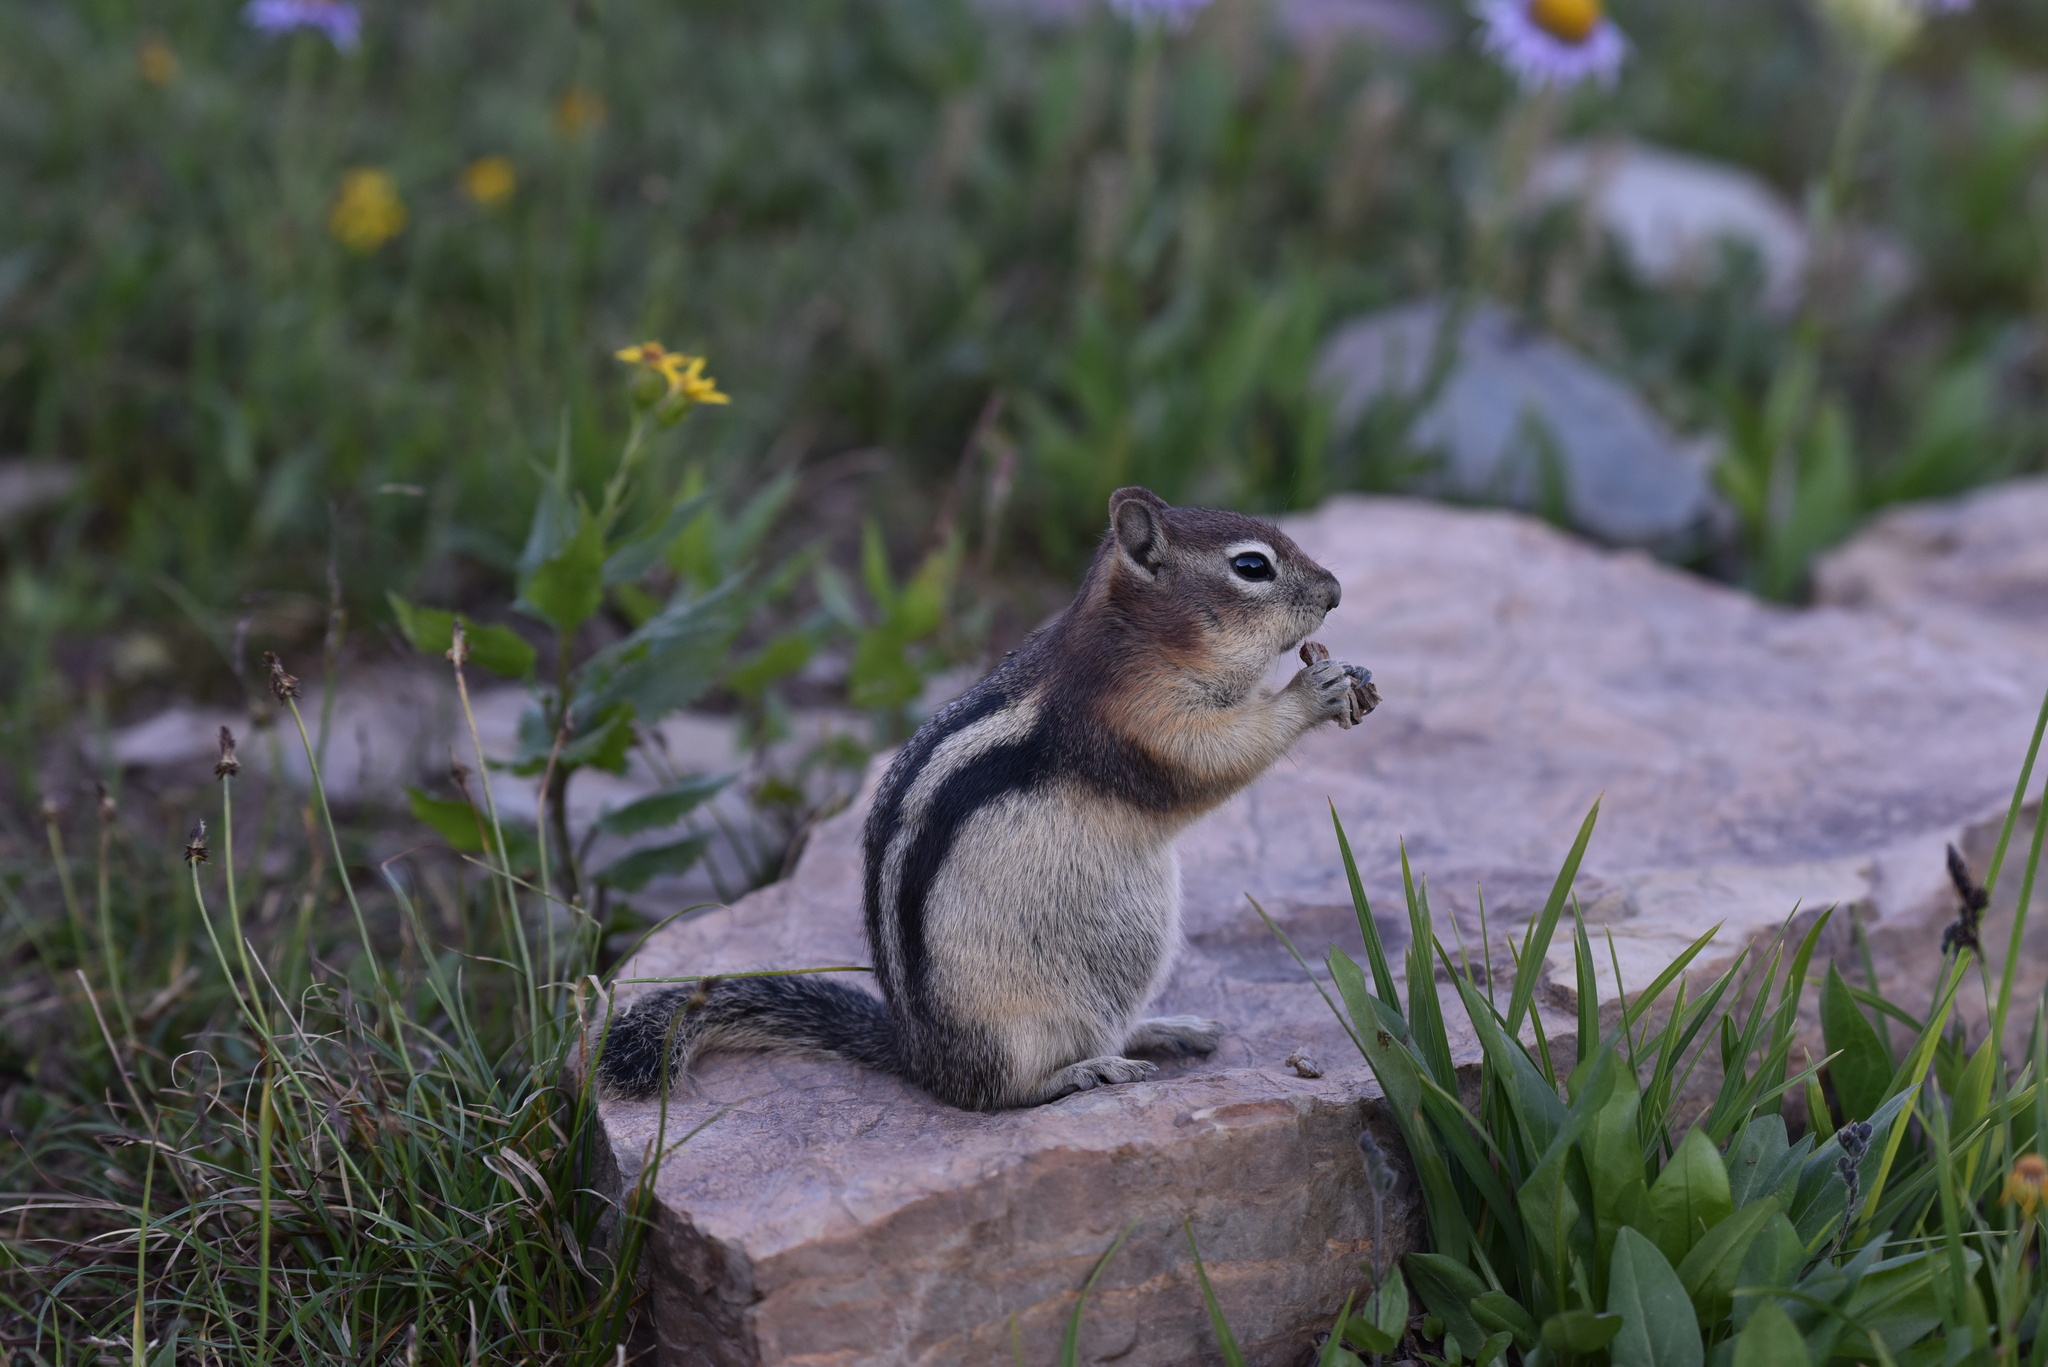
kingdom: Animalia
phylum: Chordata
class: Mammalia
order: Rodentia
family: Sciuridae
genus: Callospermophilus
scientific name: Callospermophilus lateralis
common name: Golden-mantled ground squirrel
